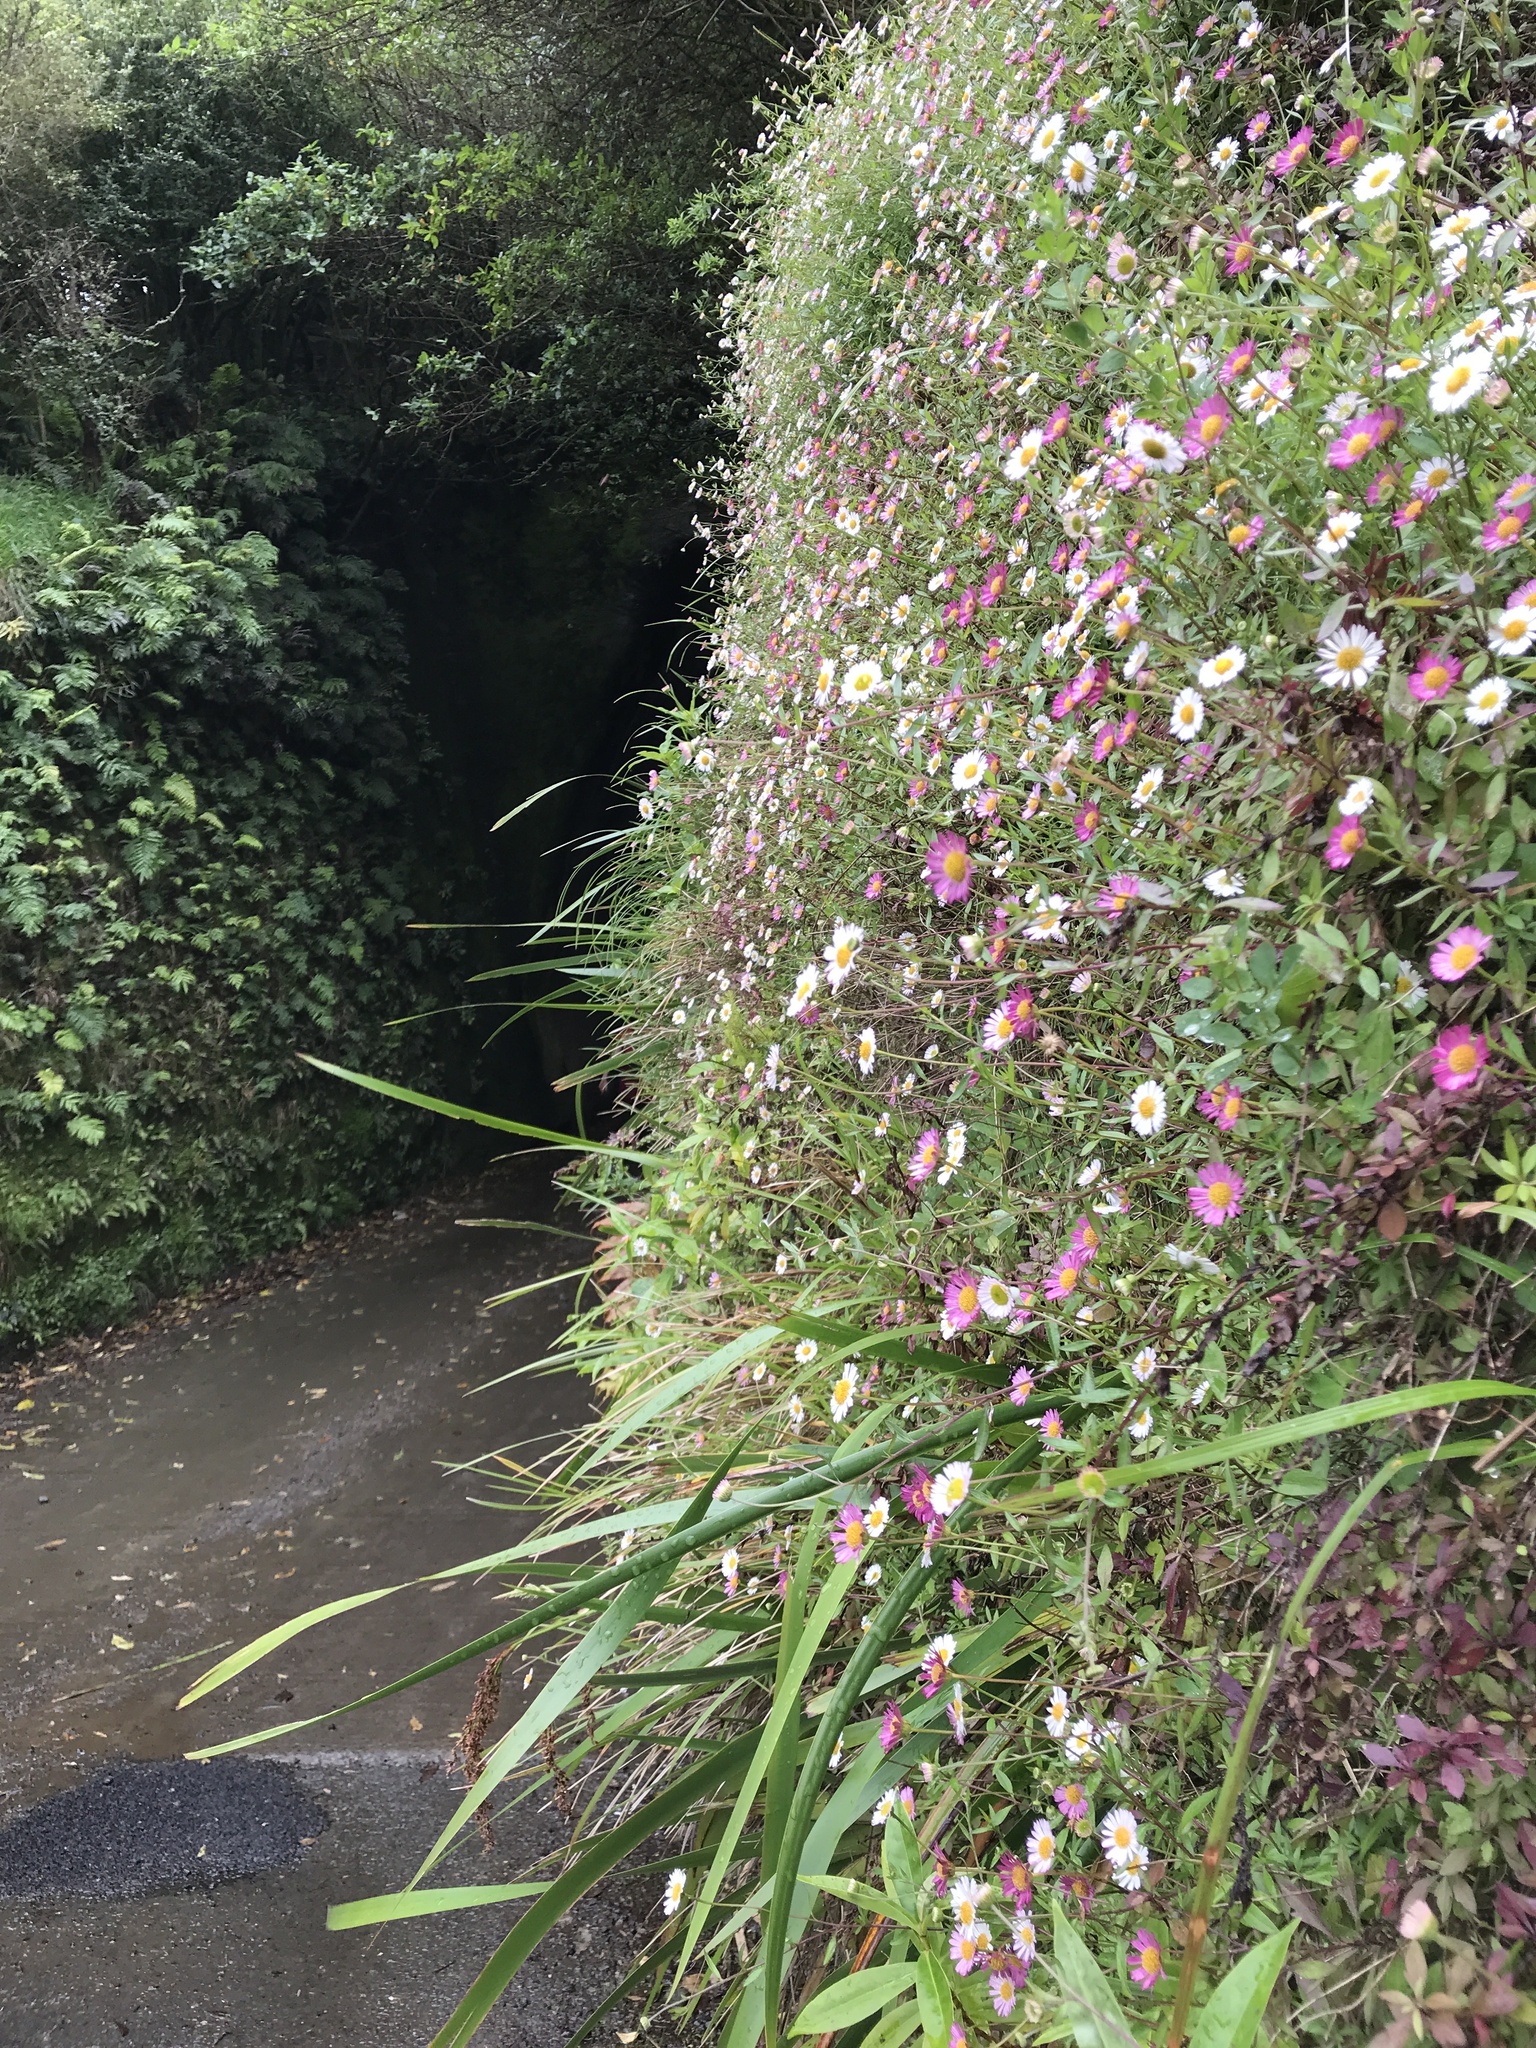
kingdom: Plantae
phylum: Tracheophyta
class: Magnoliopsida
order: Asterales
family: Asteraceae
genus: Erigeron
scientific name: Erigeron karvinskianus
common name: Mexican fleabane
